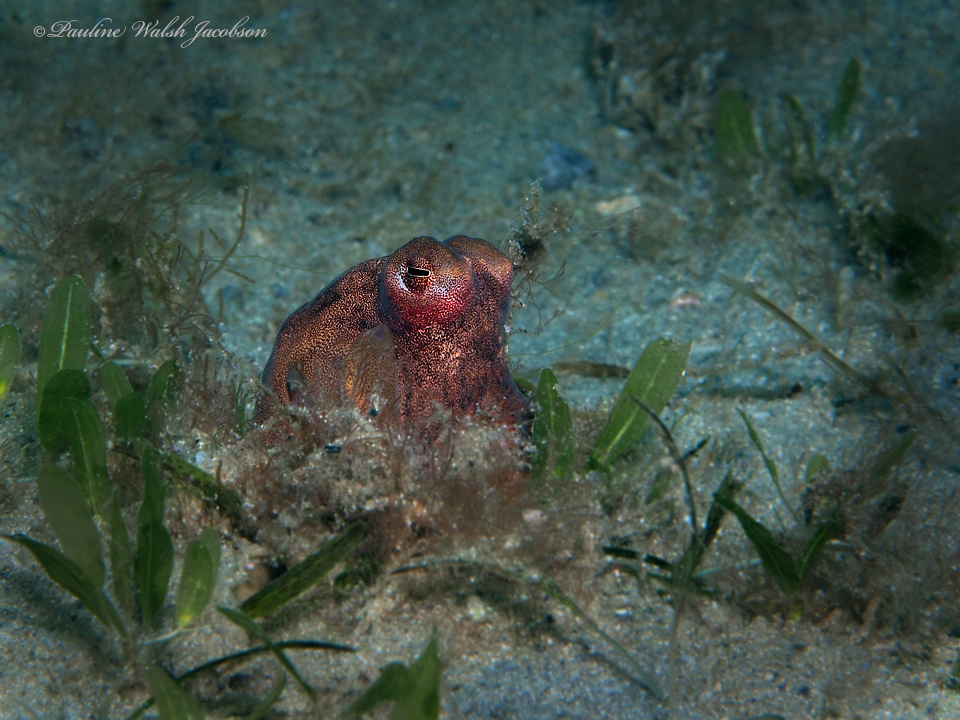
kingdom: Animalia
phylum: Mollusca
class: Cephalopoda
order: Octopoda
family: Octopodidae
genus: Macrotritopus
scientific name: Macrotritopus defilippi
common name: Lilliput longarm octopus
